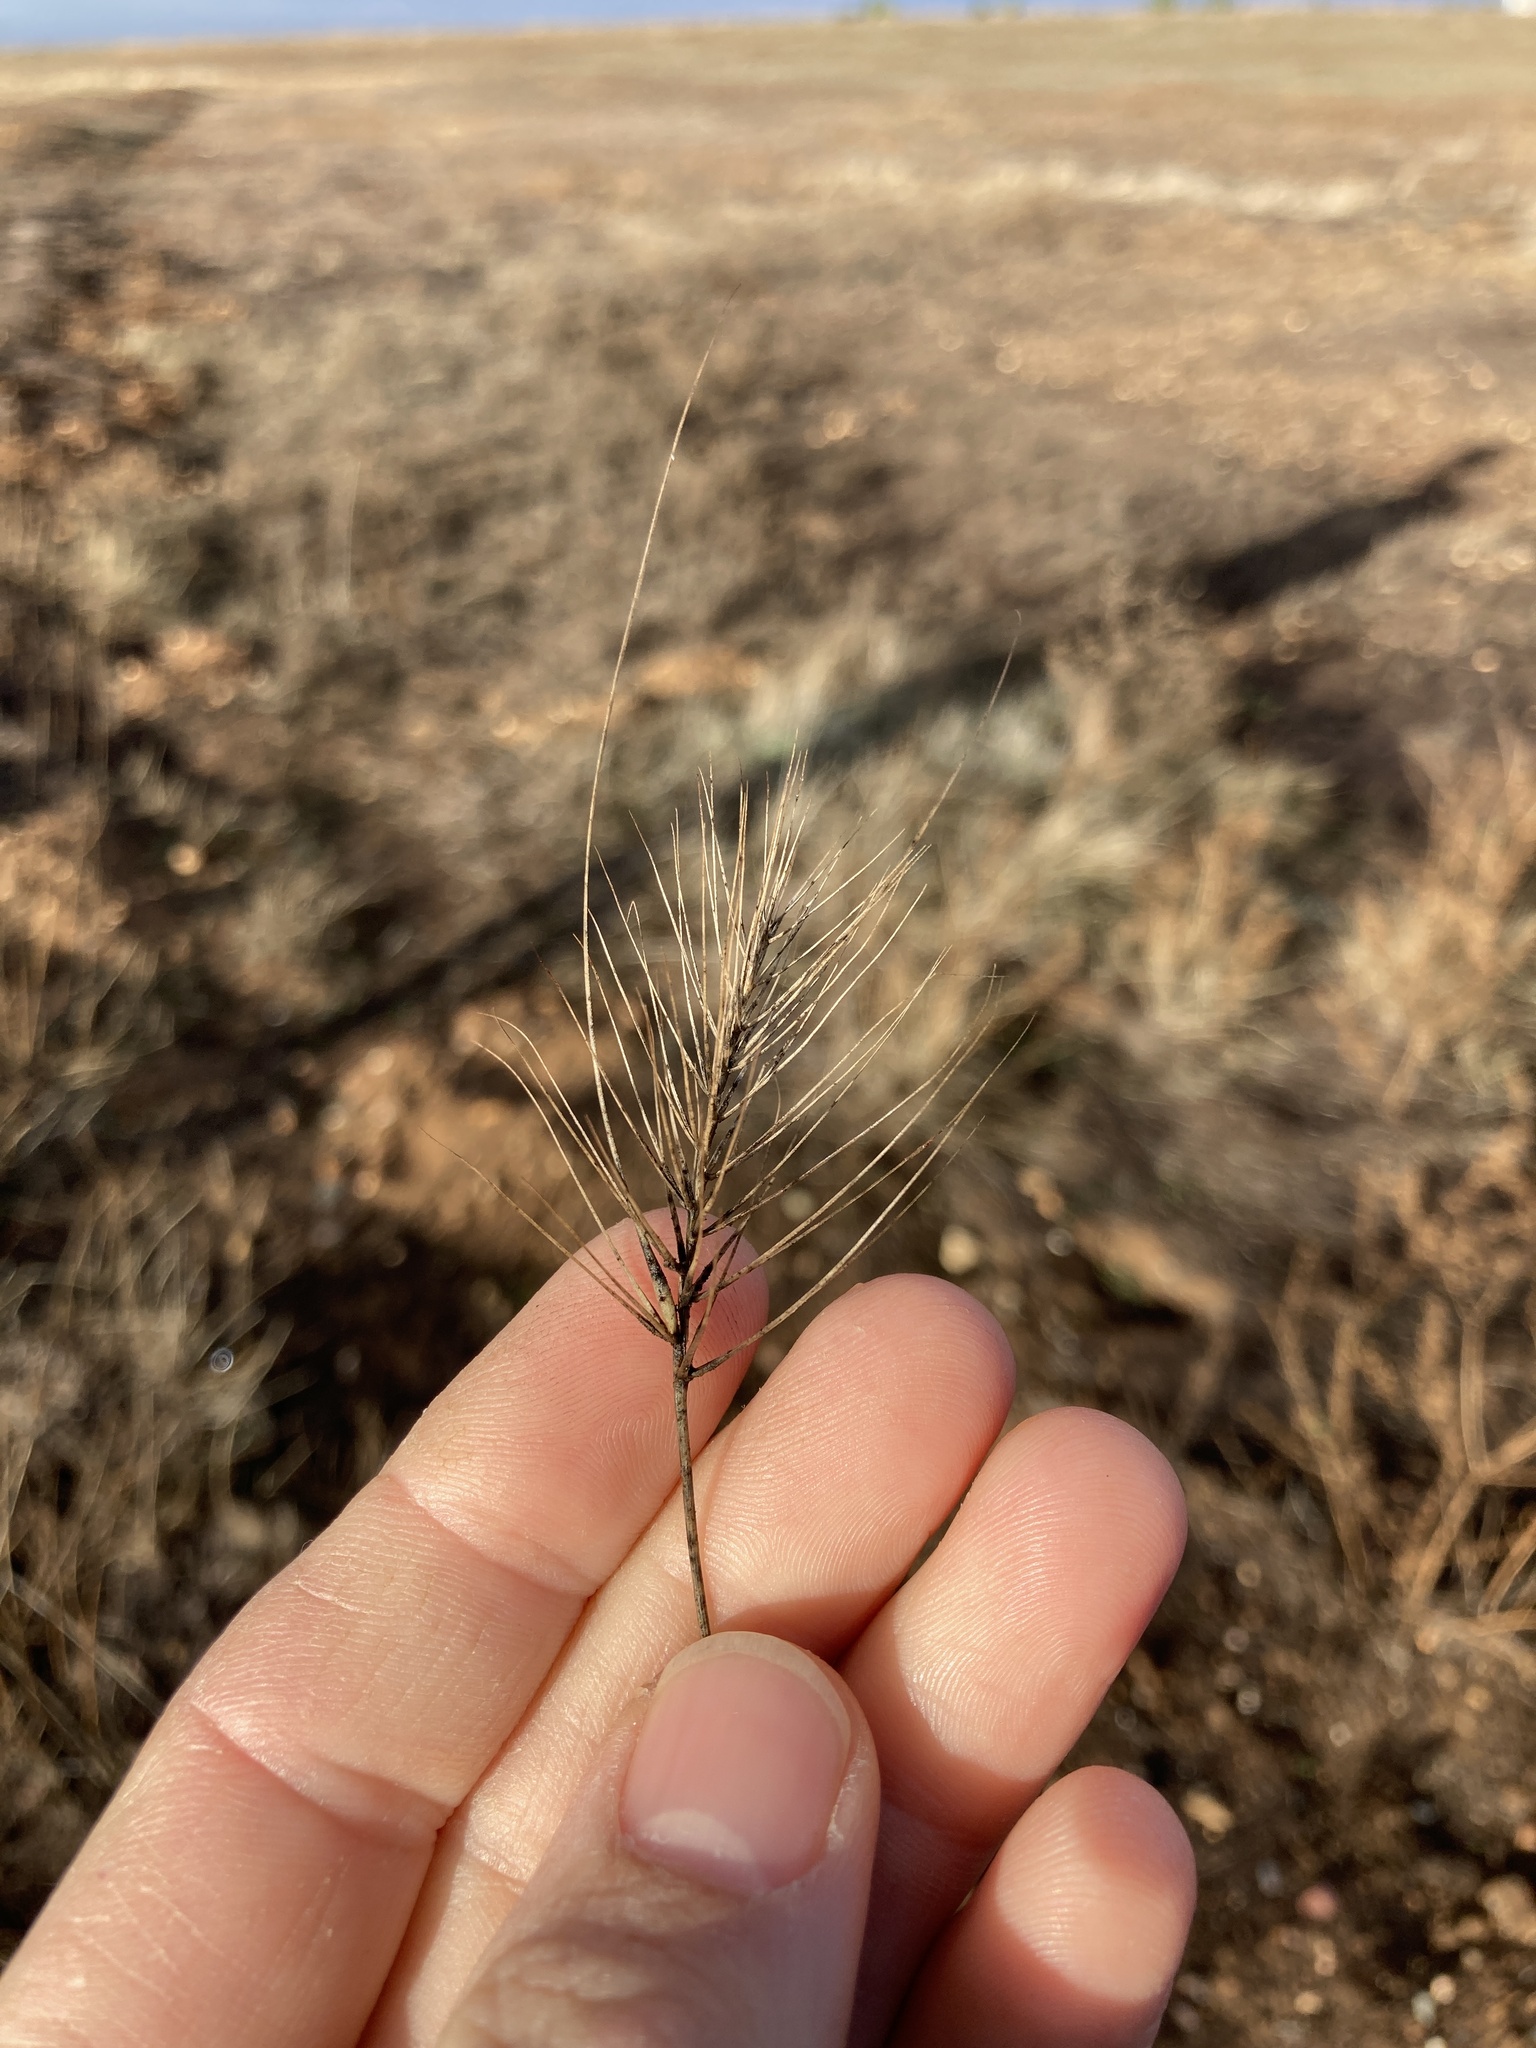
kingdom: Plantae
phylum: Tracheophyta
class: Liliopsida
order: Poales
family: Poaceae
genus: Taeniatherum
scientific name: Taeniatherum caput-medusae
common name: Medusahead
